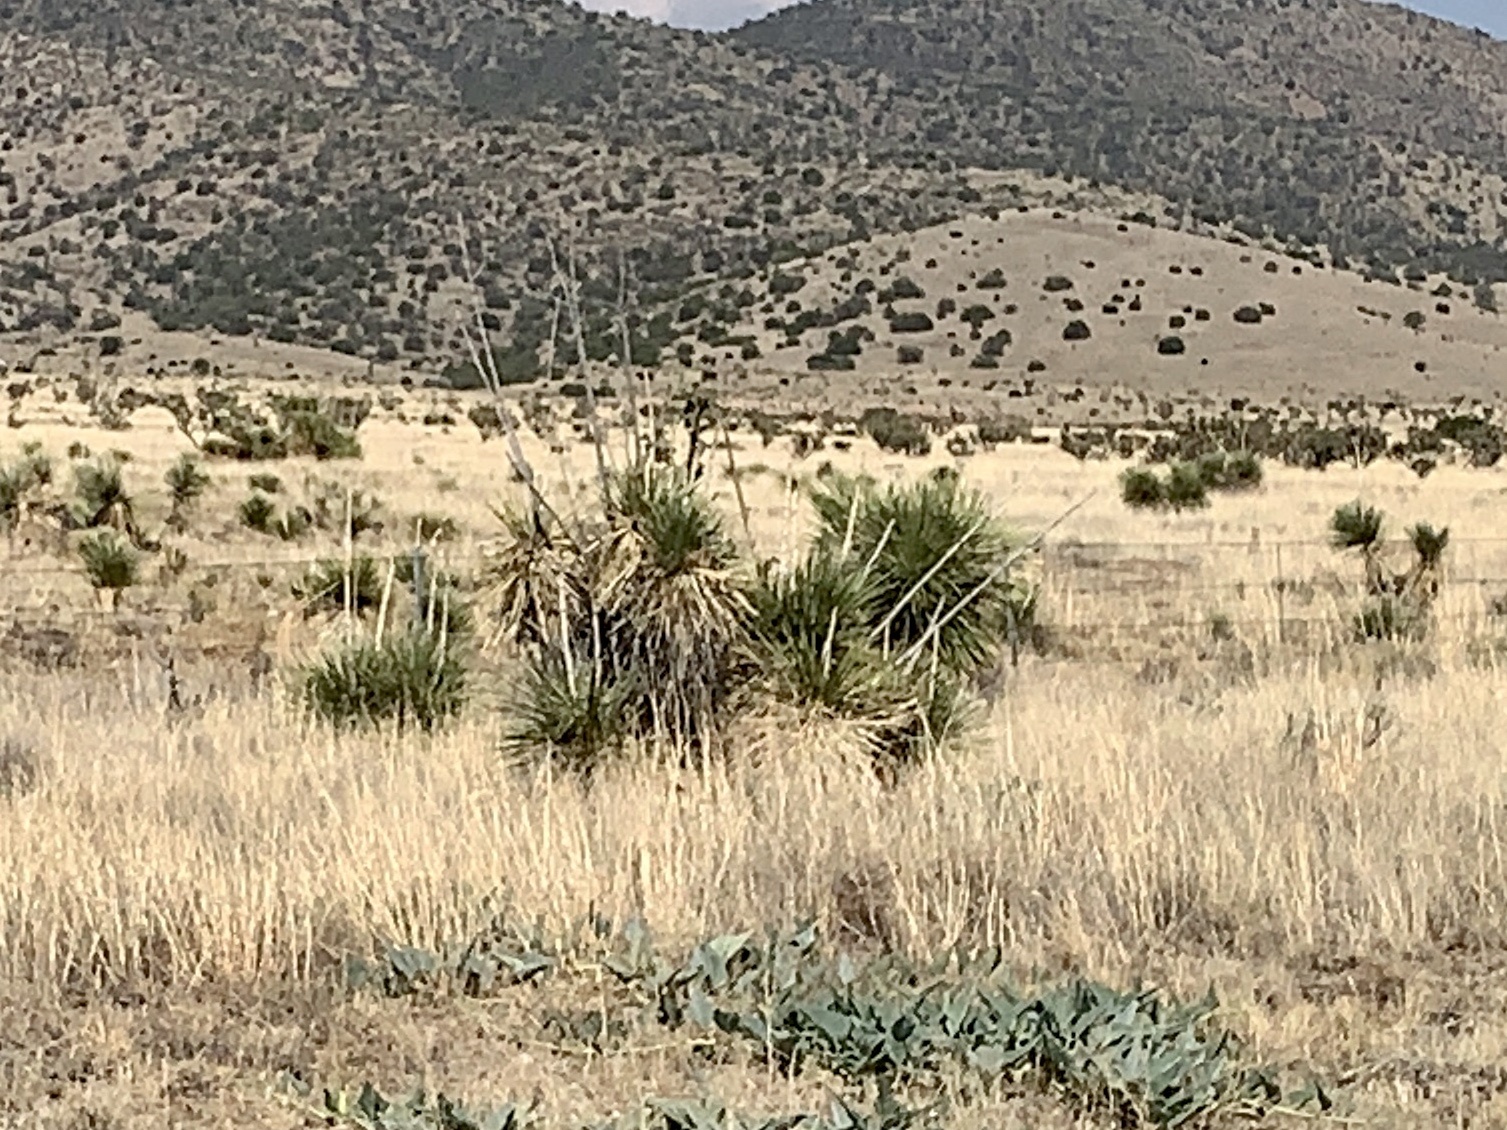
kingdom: Plantae
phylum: Tracheophyta
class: Liliopsida
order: Asparagales
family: Asparagaceae
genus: Yucca
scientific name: Yucca elata
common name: Palmella
